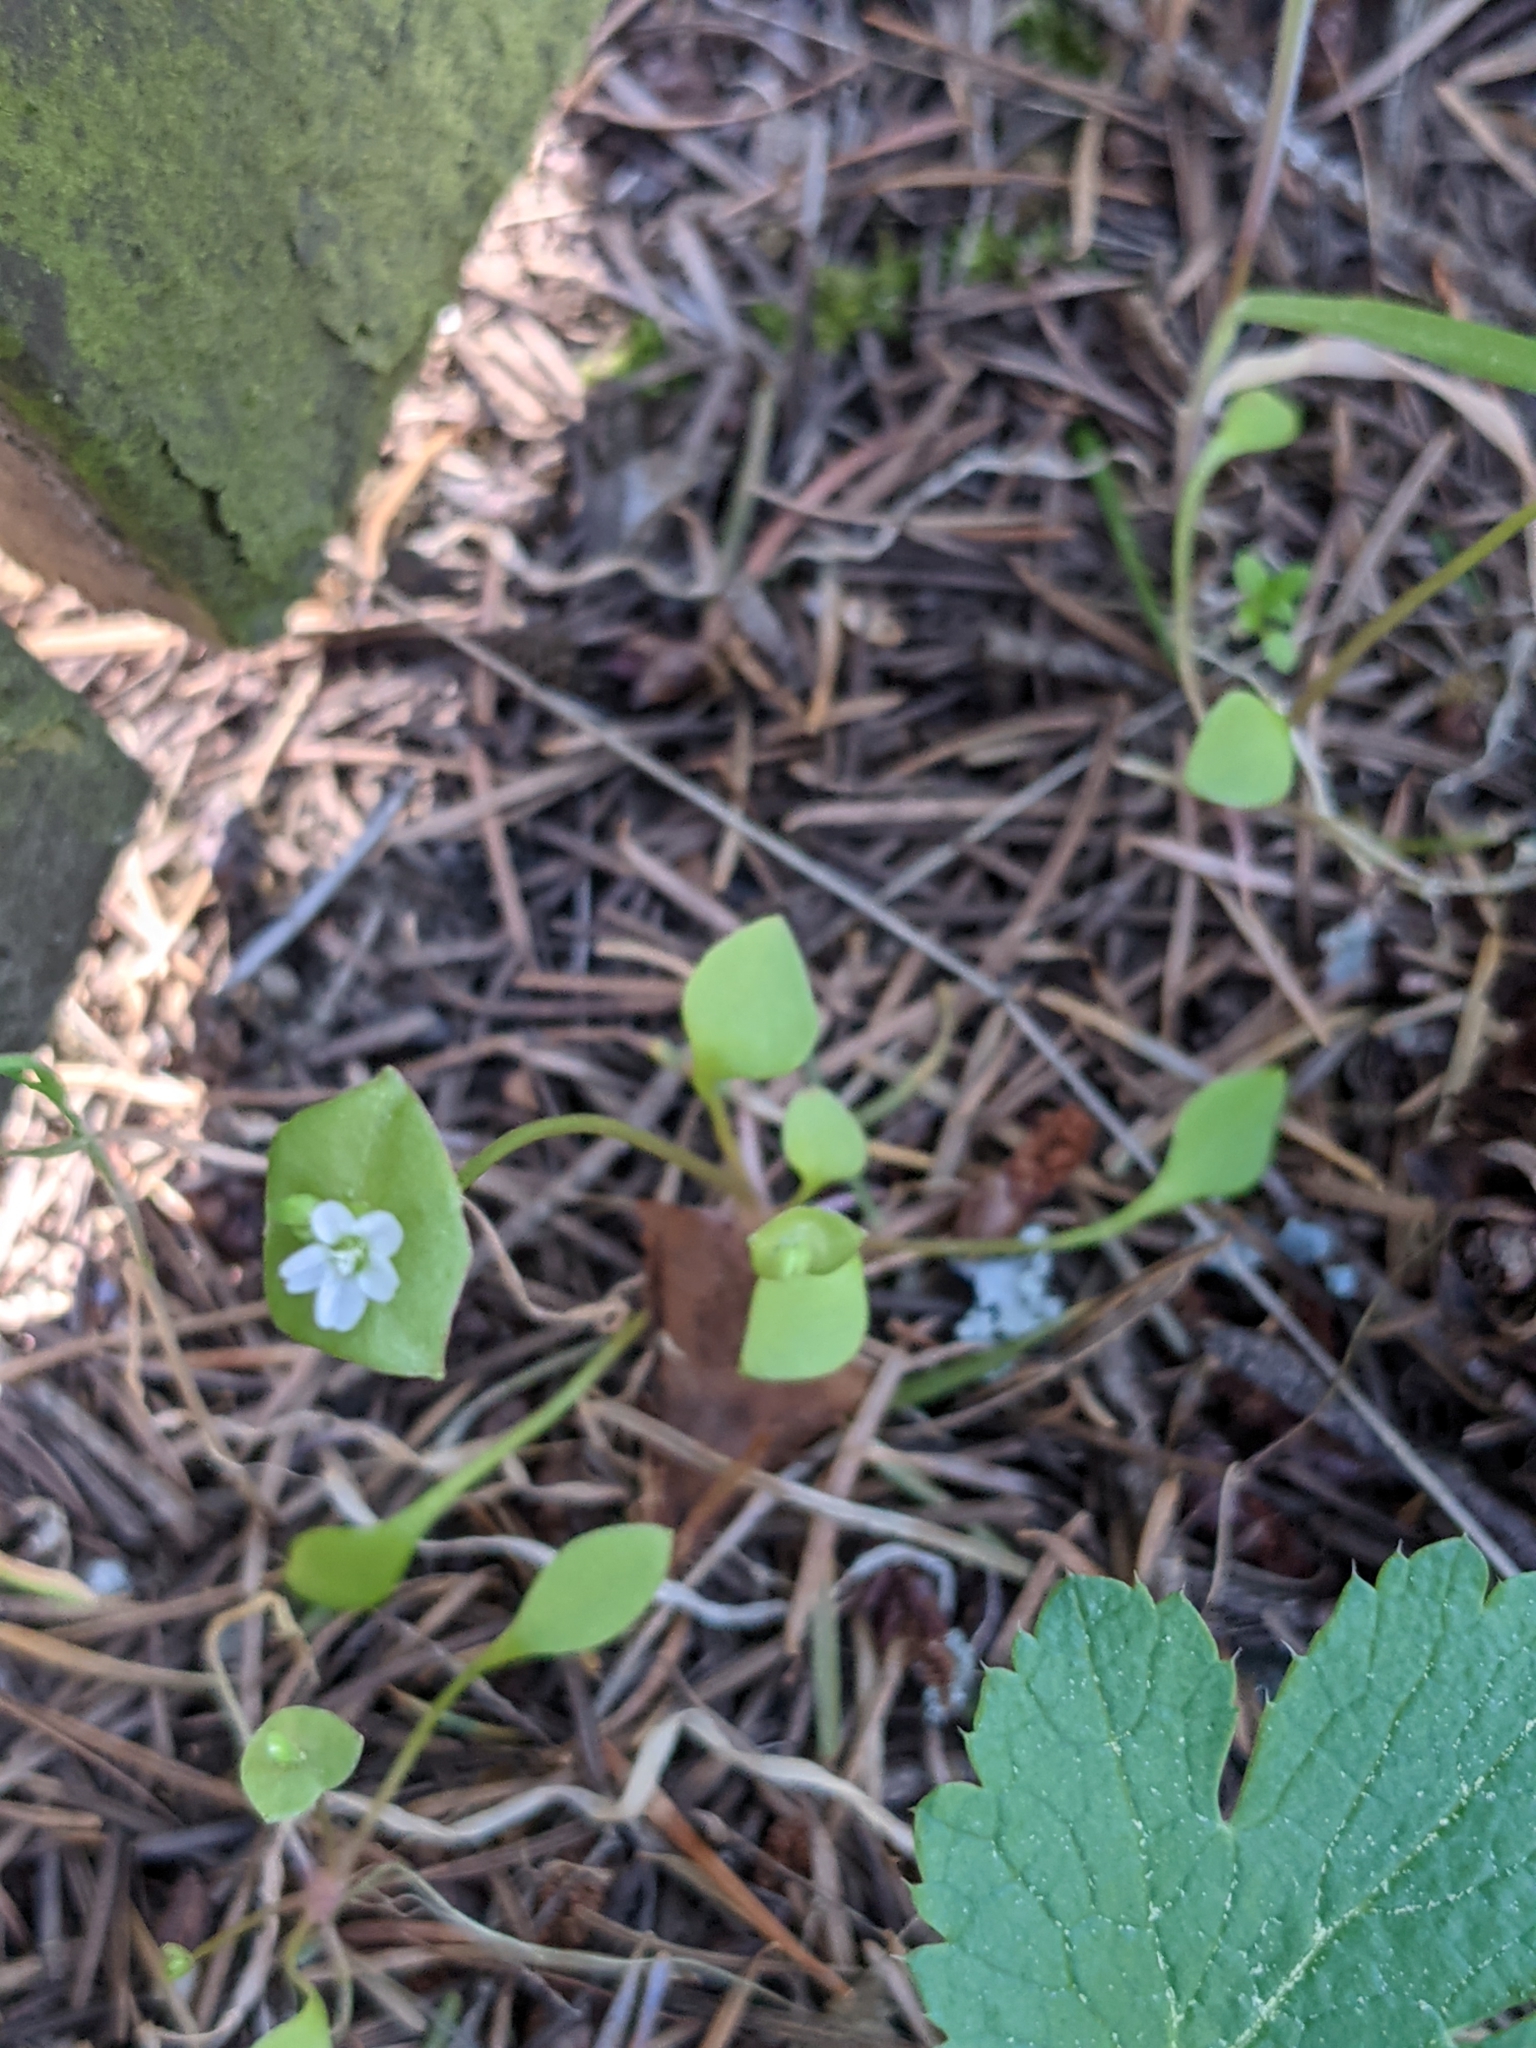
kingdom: Plantae
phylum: Tracheophyta
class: Magnoliopsida
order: Caryophyllales
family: Montiaceae
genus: Claytonia
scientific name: Claytonia perfoliata
